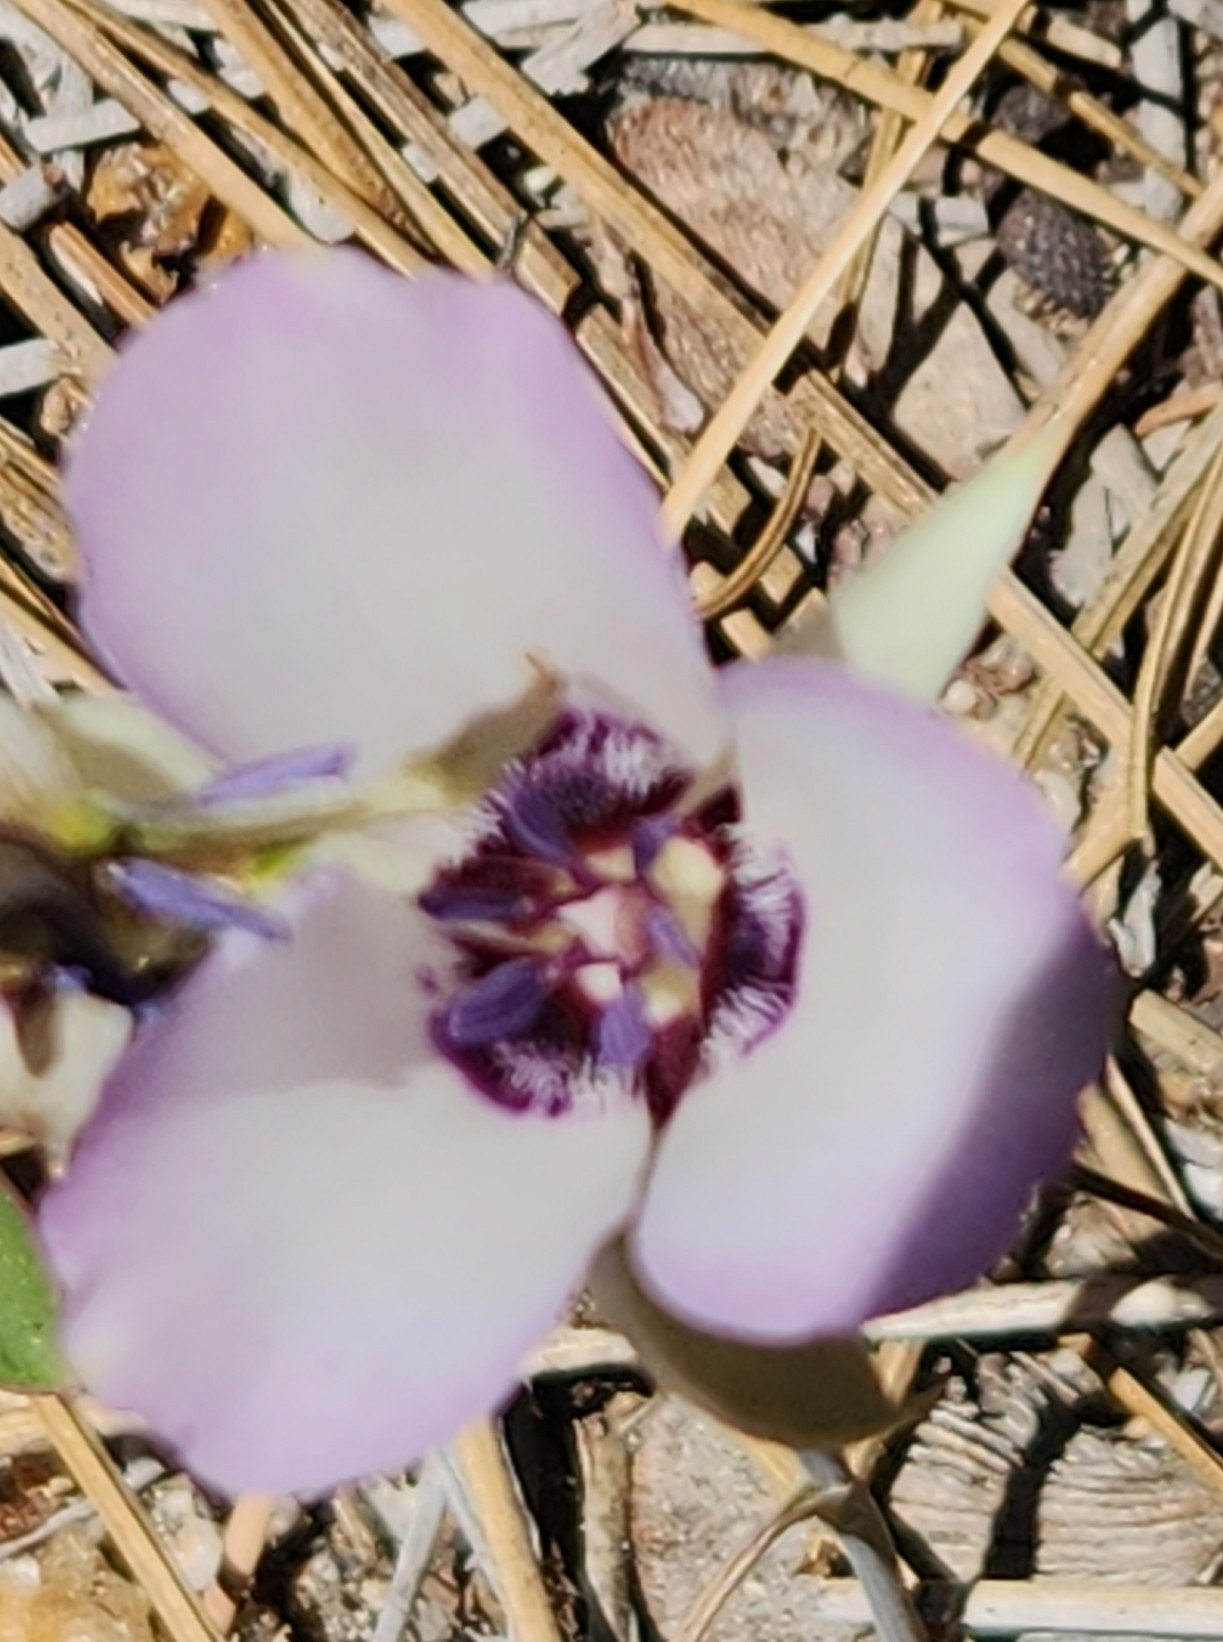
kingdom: Plantae
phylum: Tracheophyta
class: Liliopsida
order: Liliales
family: Liliaceae
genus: Calochortus
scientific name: Calochortus invenustus
